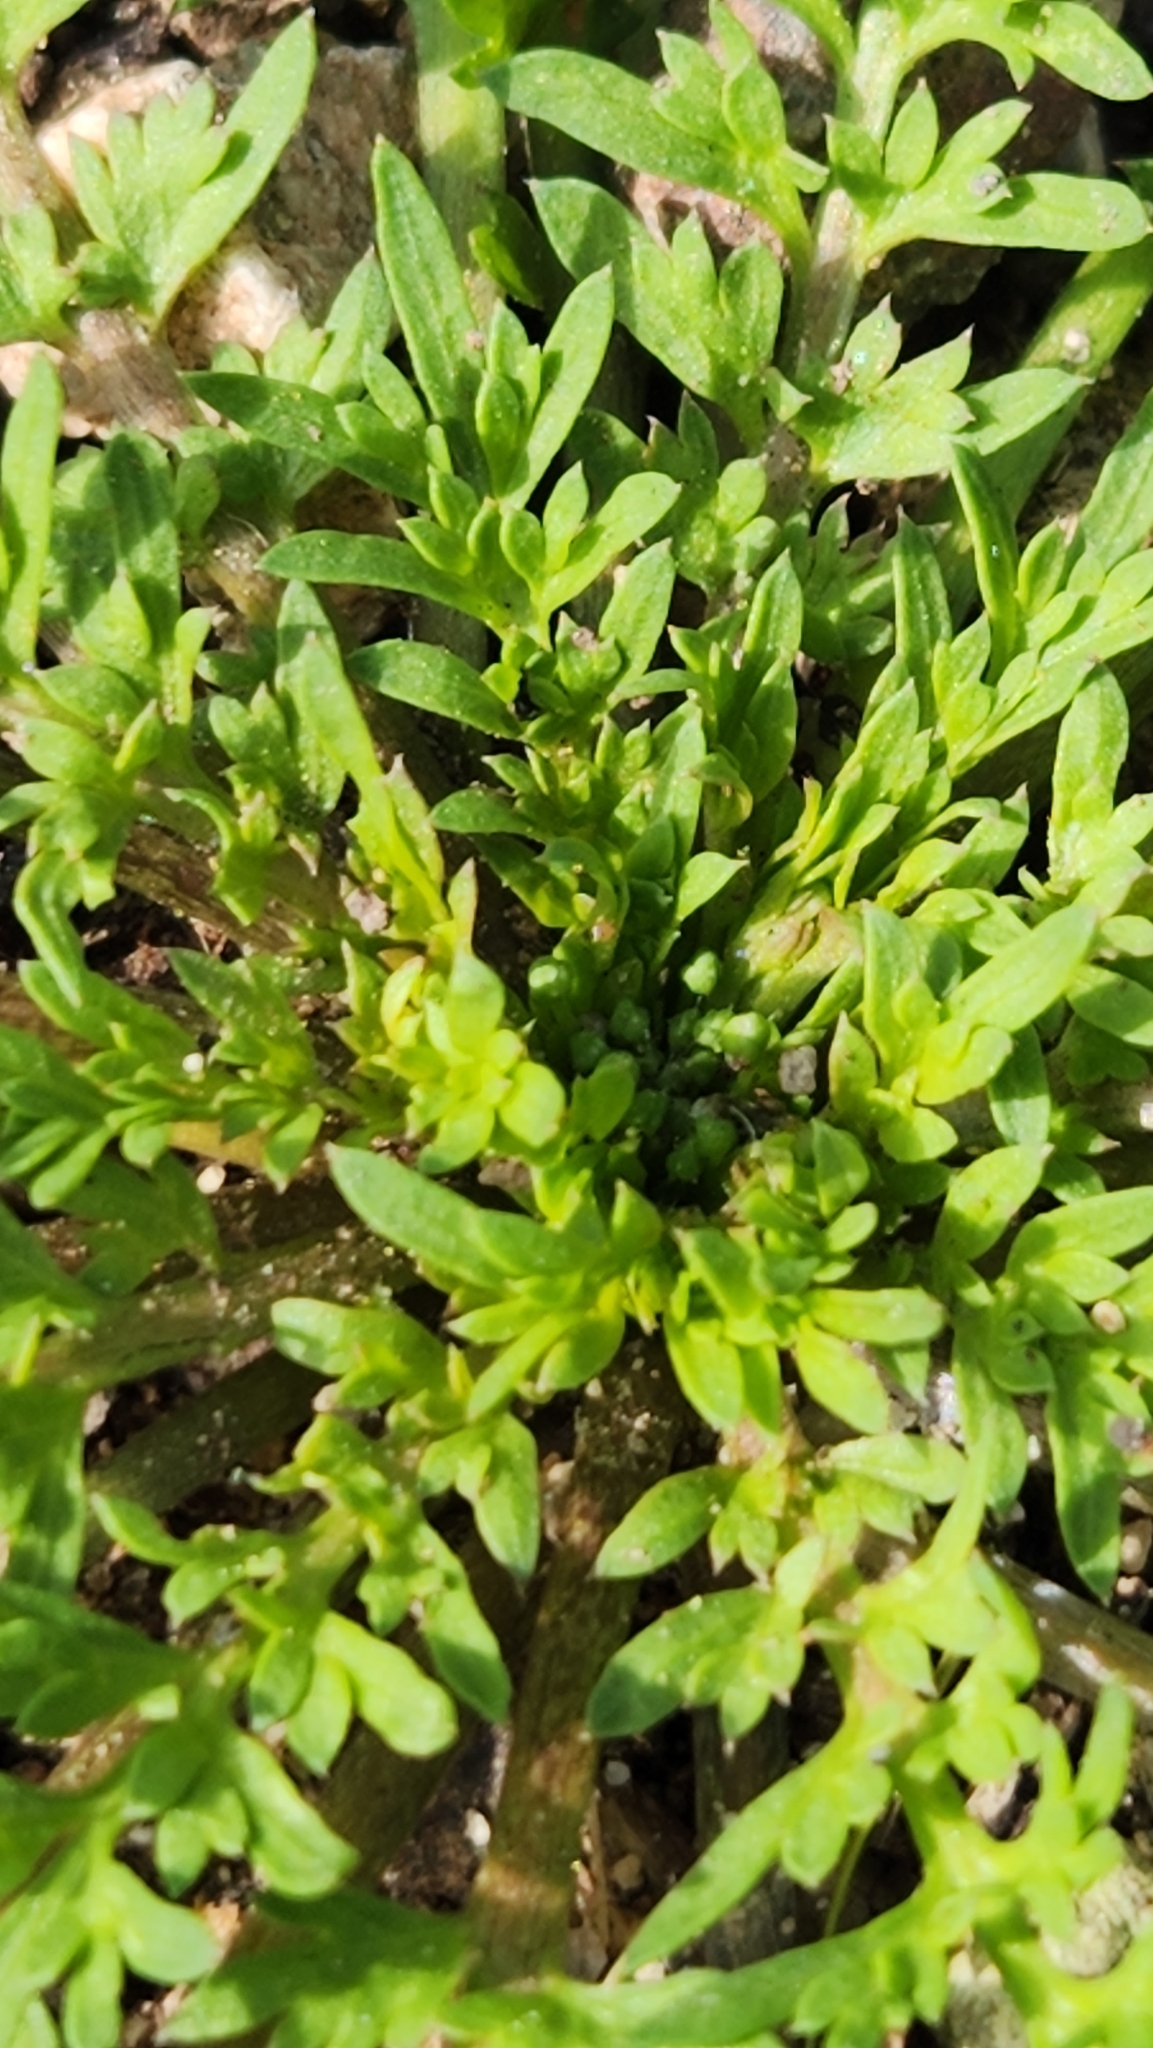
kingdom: Plantae
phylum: Tracheophyta
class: Magnoliopsida
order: Brassicales
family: Brassicaceae
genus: Lepidium
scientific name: Lepidium didymum
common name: Lesser swinecress
